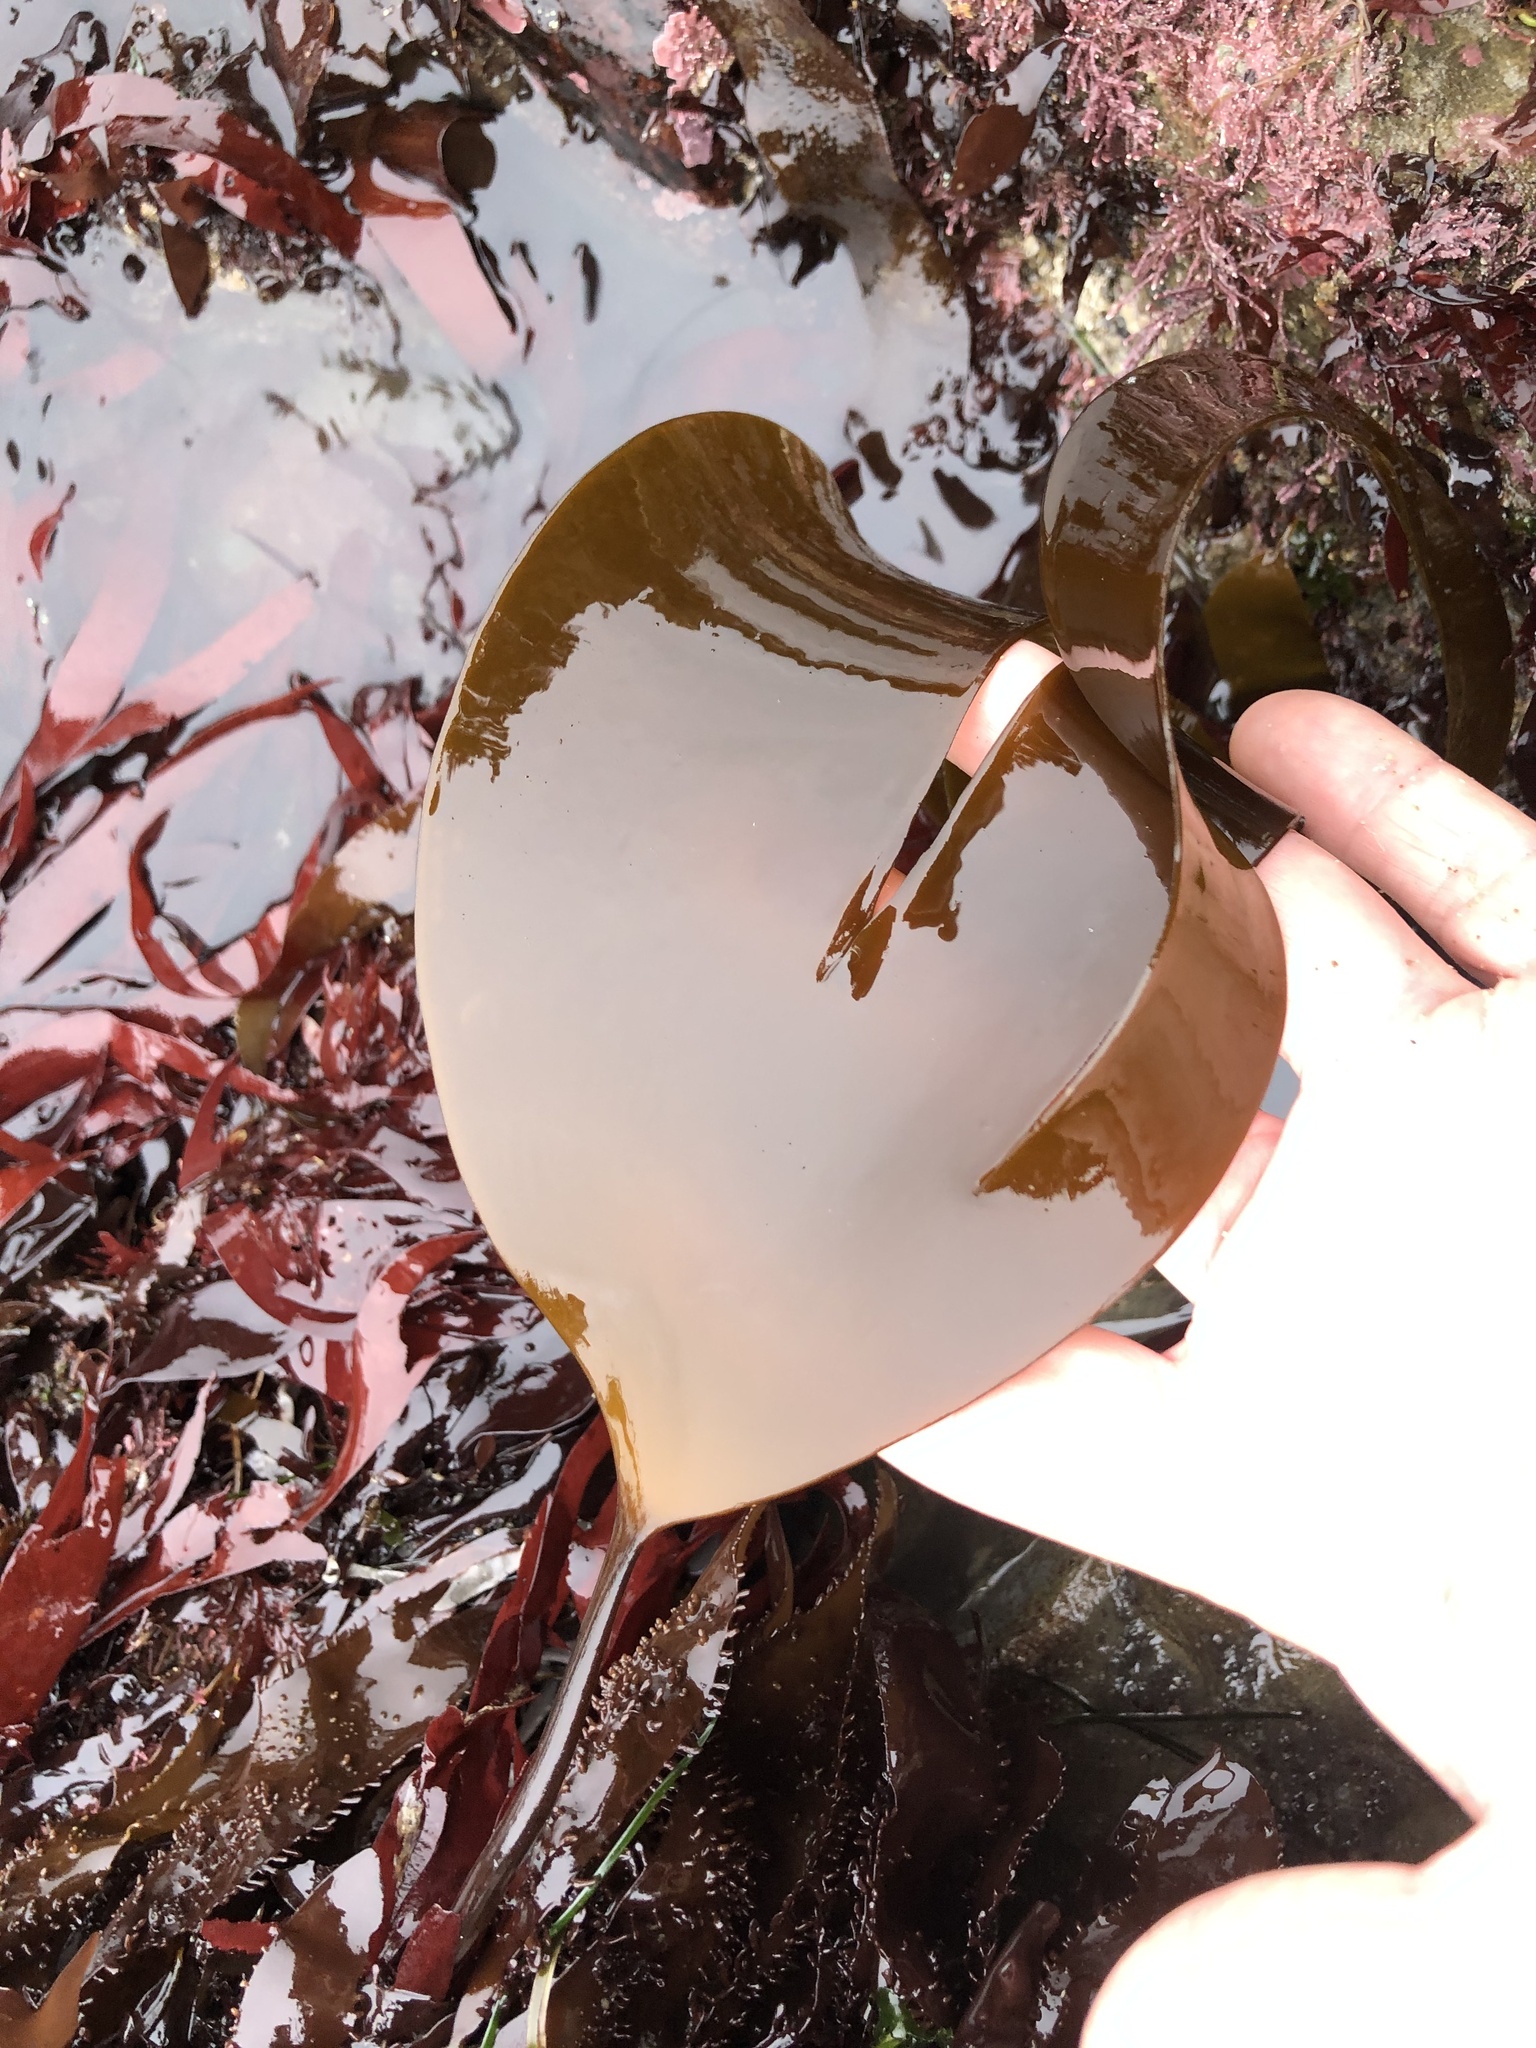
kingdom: Chromista
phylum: Ochrophyta
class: Phaeophyceae
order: Laminariales
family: Laminariaceae
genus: Laminaria
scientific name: Laminaria setchellii
